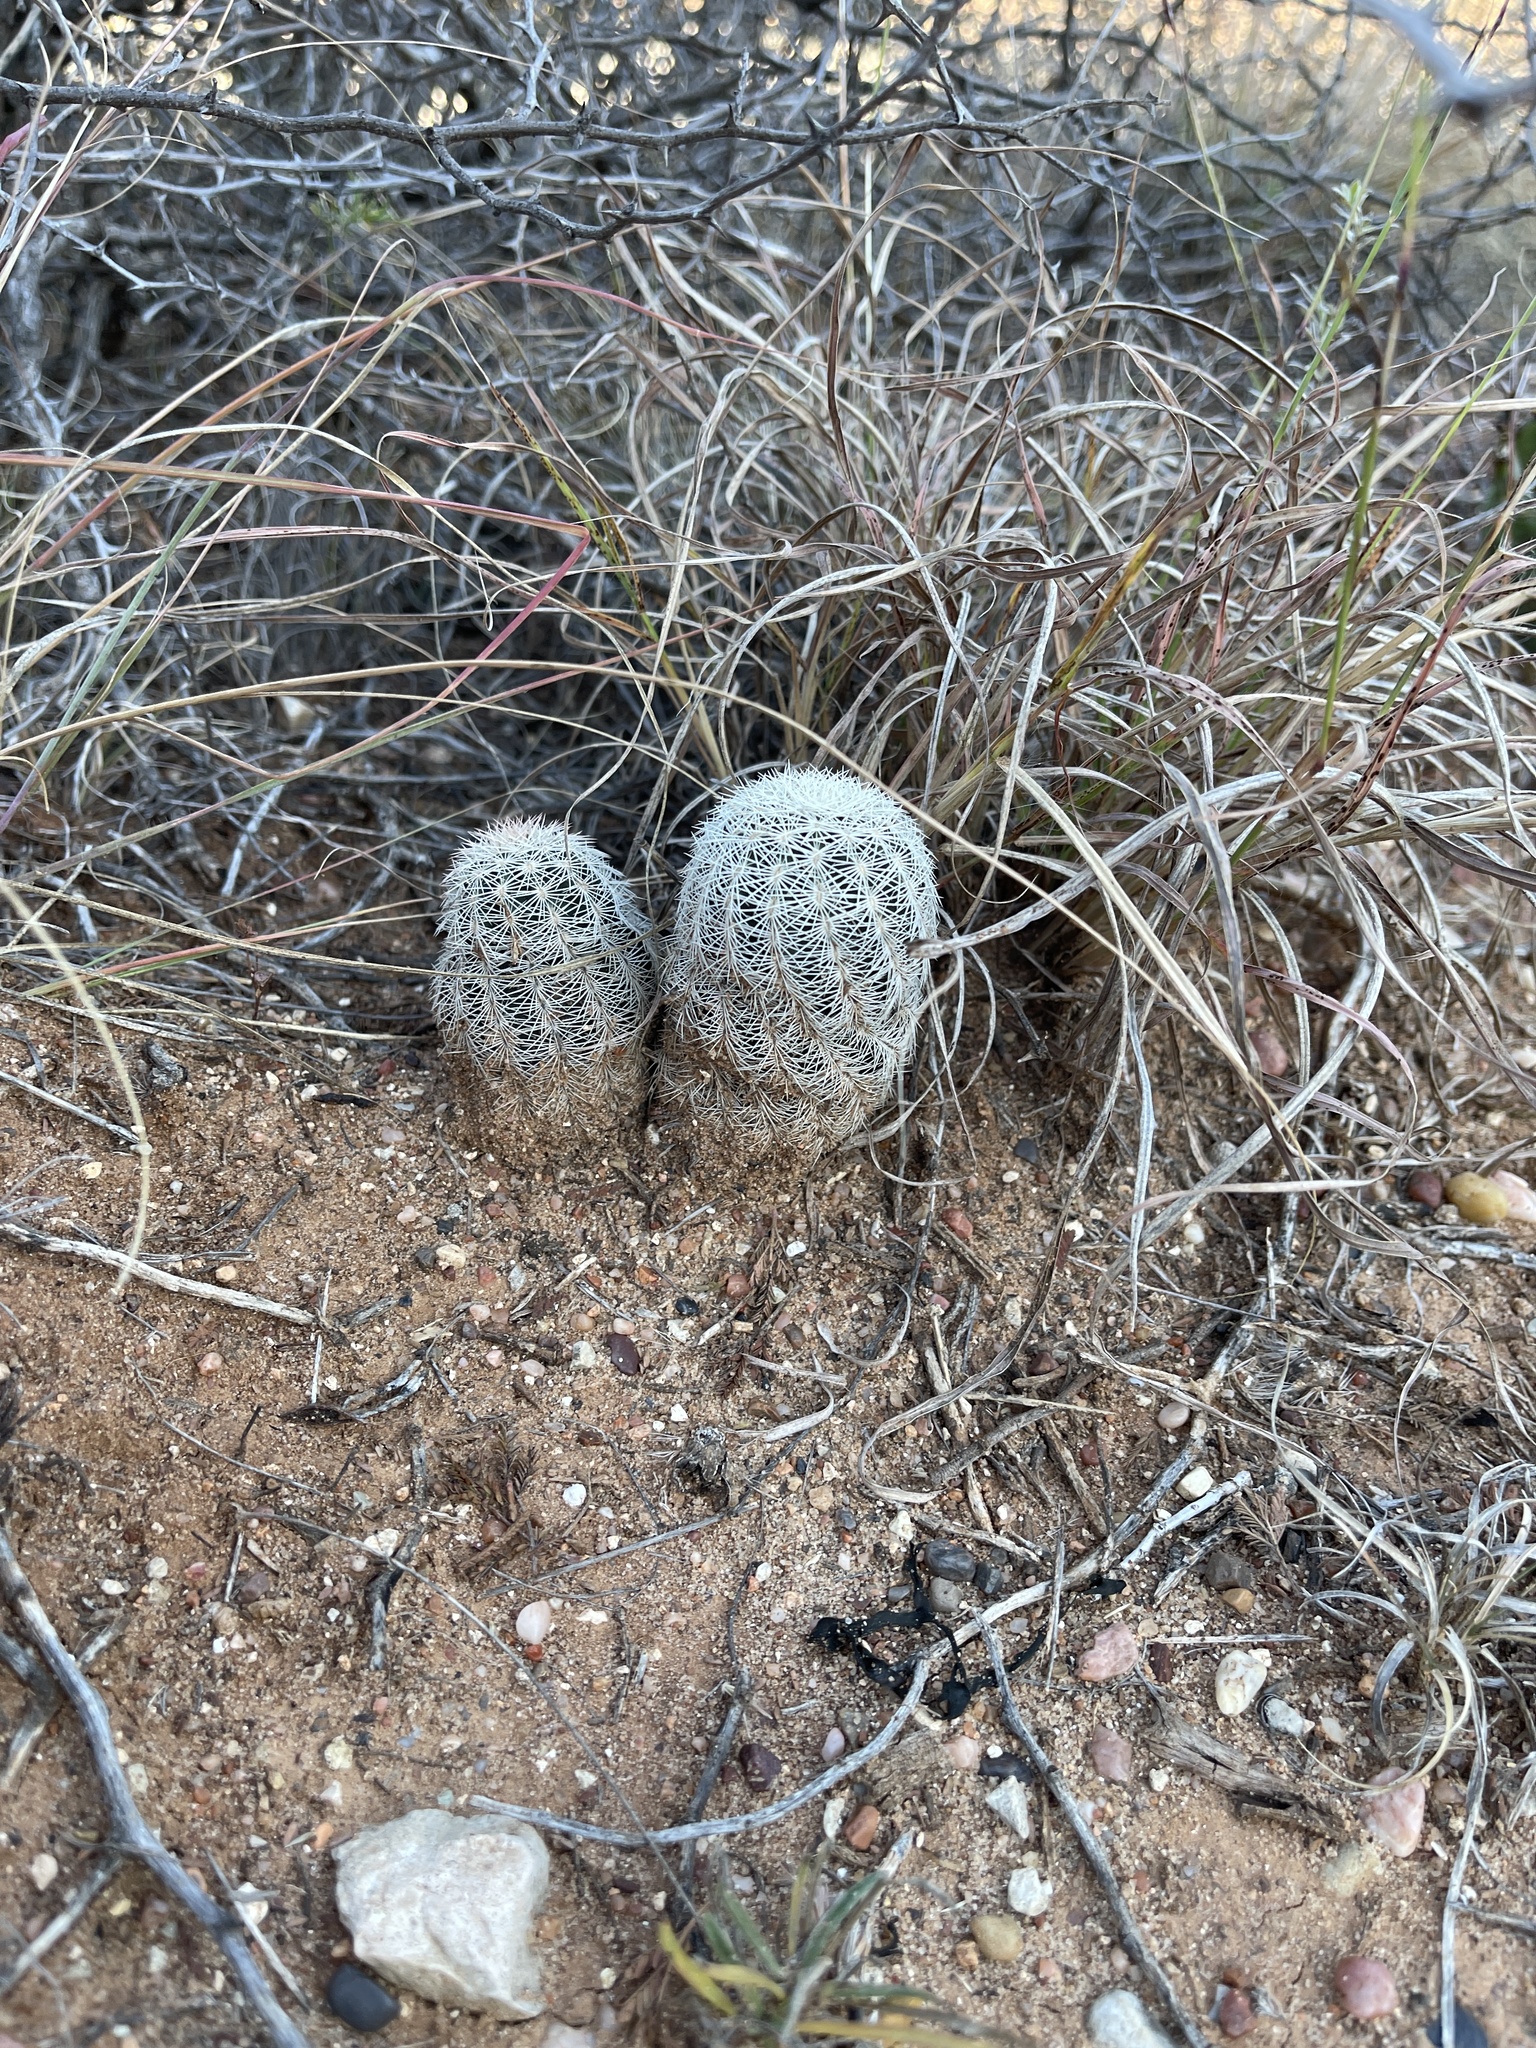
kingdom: Plantae
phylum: Tracheophyta
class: Magnoliopsida
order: Caryophyllales
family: Cactaceae
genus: Echinocereus
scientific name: Echinocereus reichenbachii
